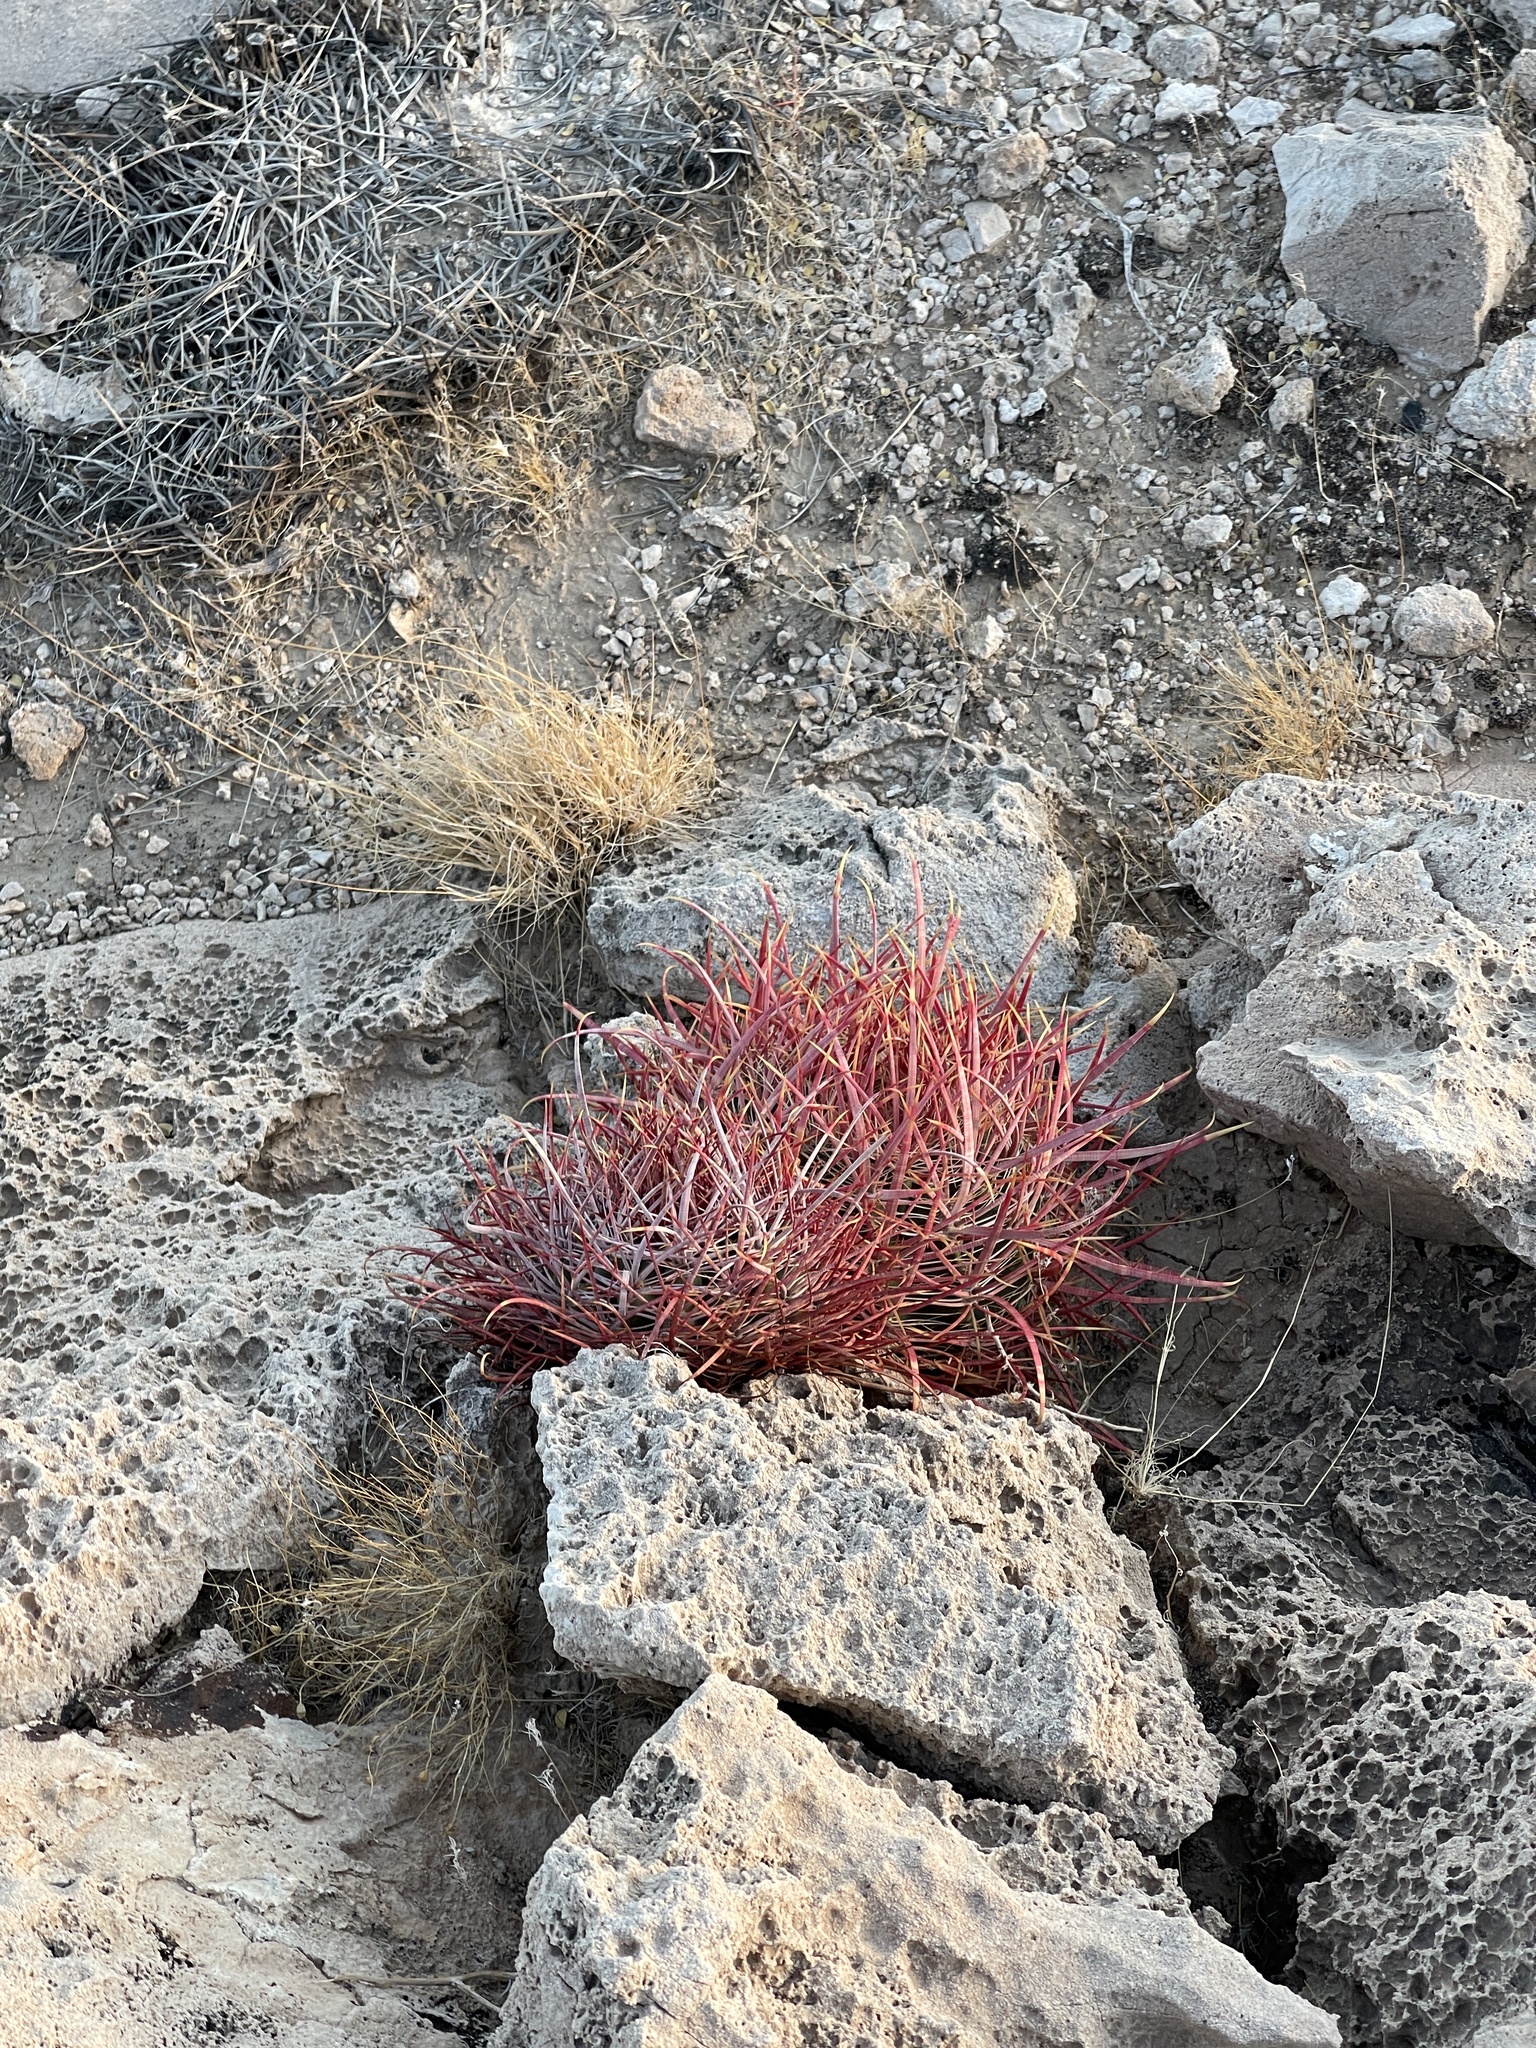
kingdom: Plantae
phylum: Tracheophyta
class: Magnoliopsida
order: Caryophyllales
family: Cactaceae
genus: Ferocactus
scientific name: Ferocactus cylindraceus
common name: California barrel cactus
